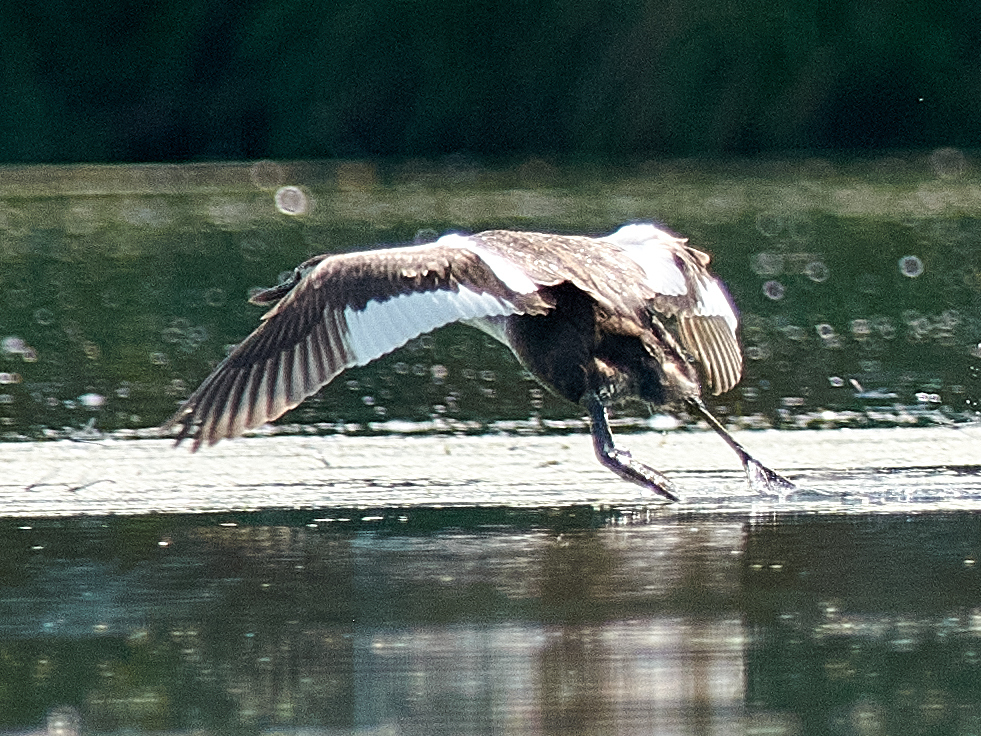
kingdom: Animalia
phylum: Chordata
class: Aves
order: Podicipediformes
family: Podicipedidae
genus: Podiceps
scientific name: Podiceps cristatus
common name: Great crested grebe
